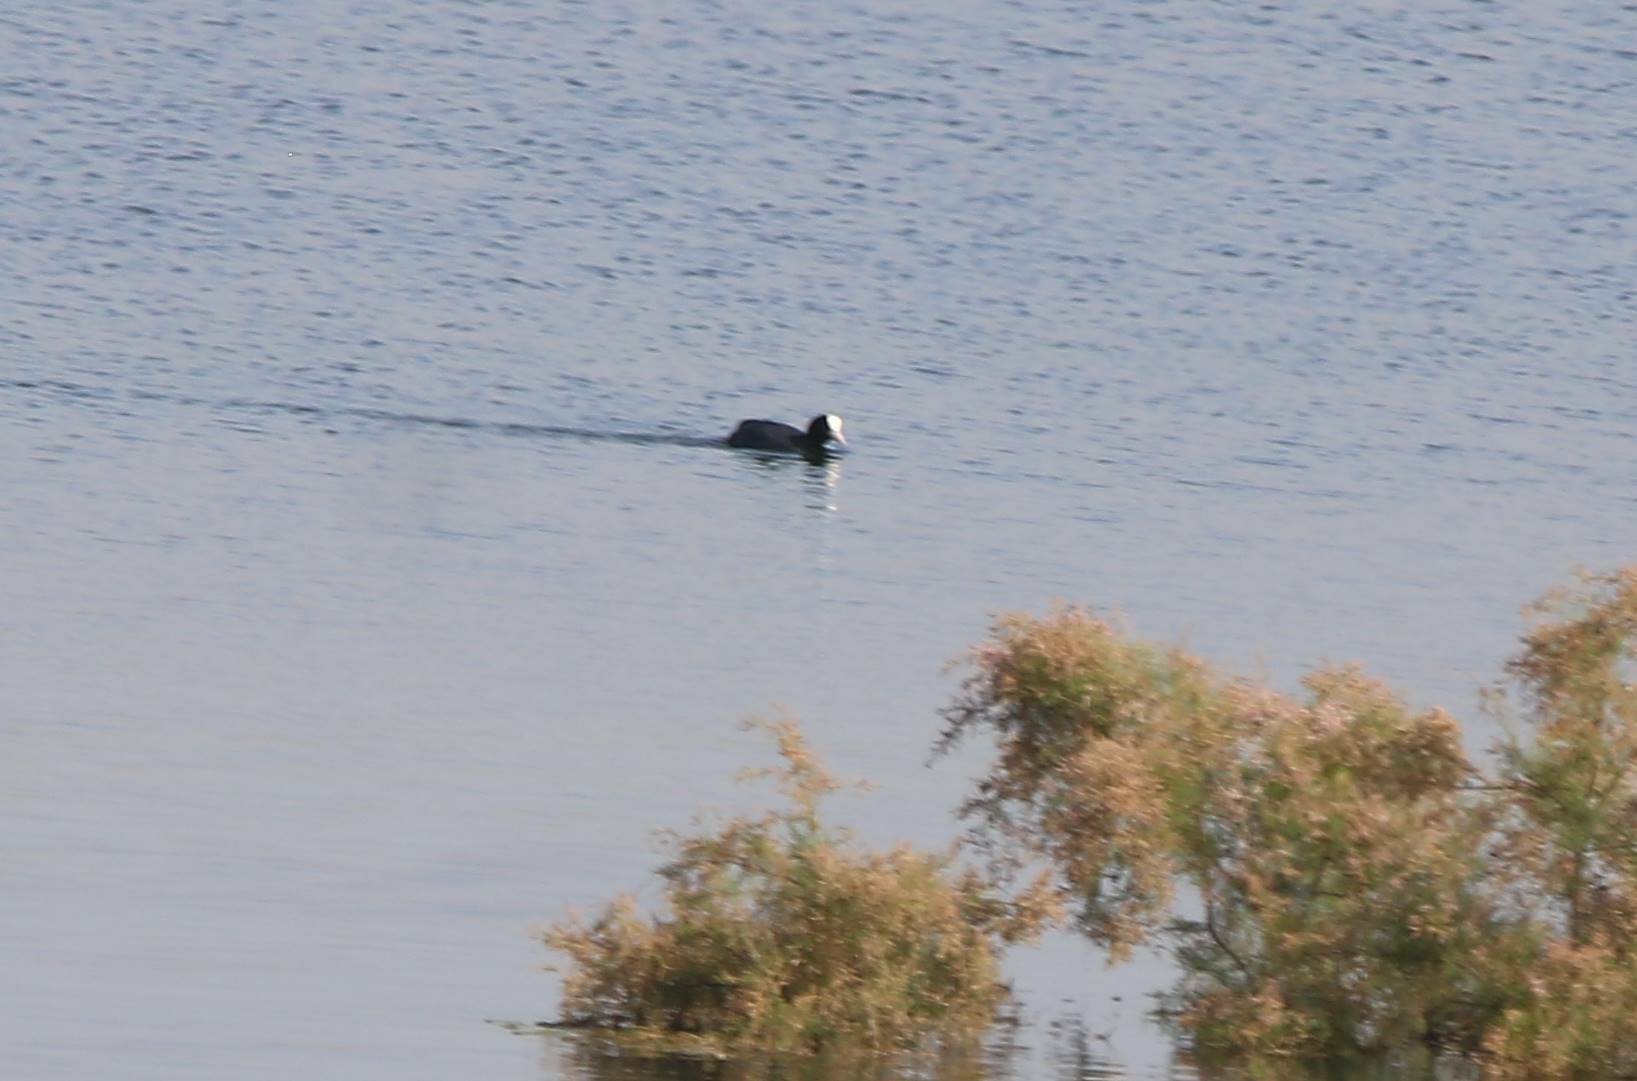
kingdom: Animalia
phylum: Chordata
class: Aves
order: Gruiformes
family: Rallidae
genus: Fulica
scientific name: Fulica atra
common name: Eurasian coot
